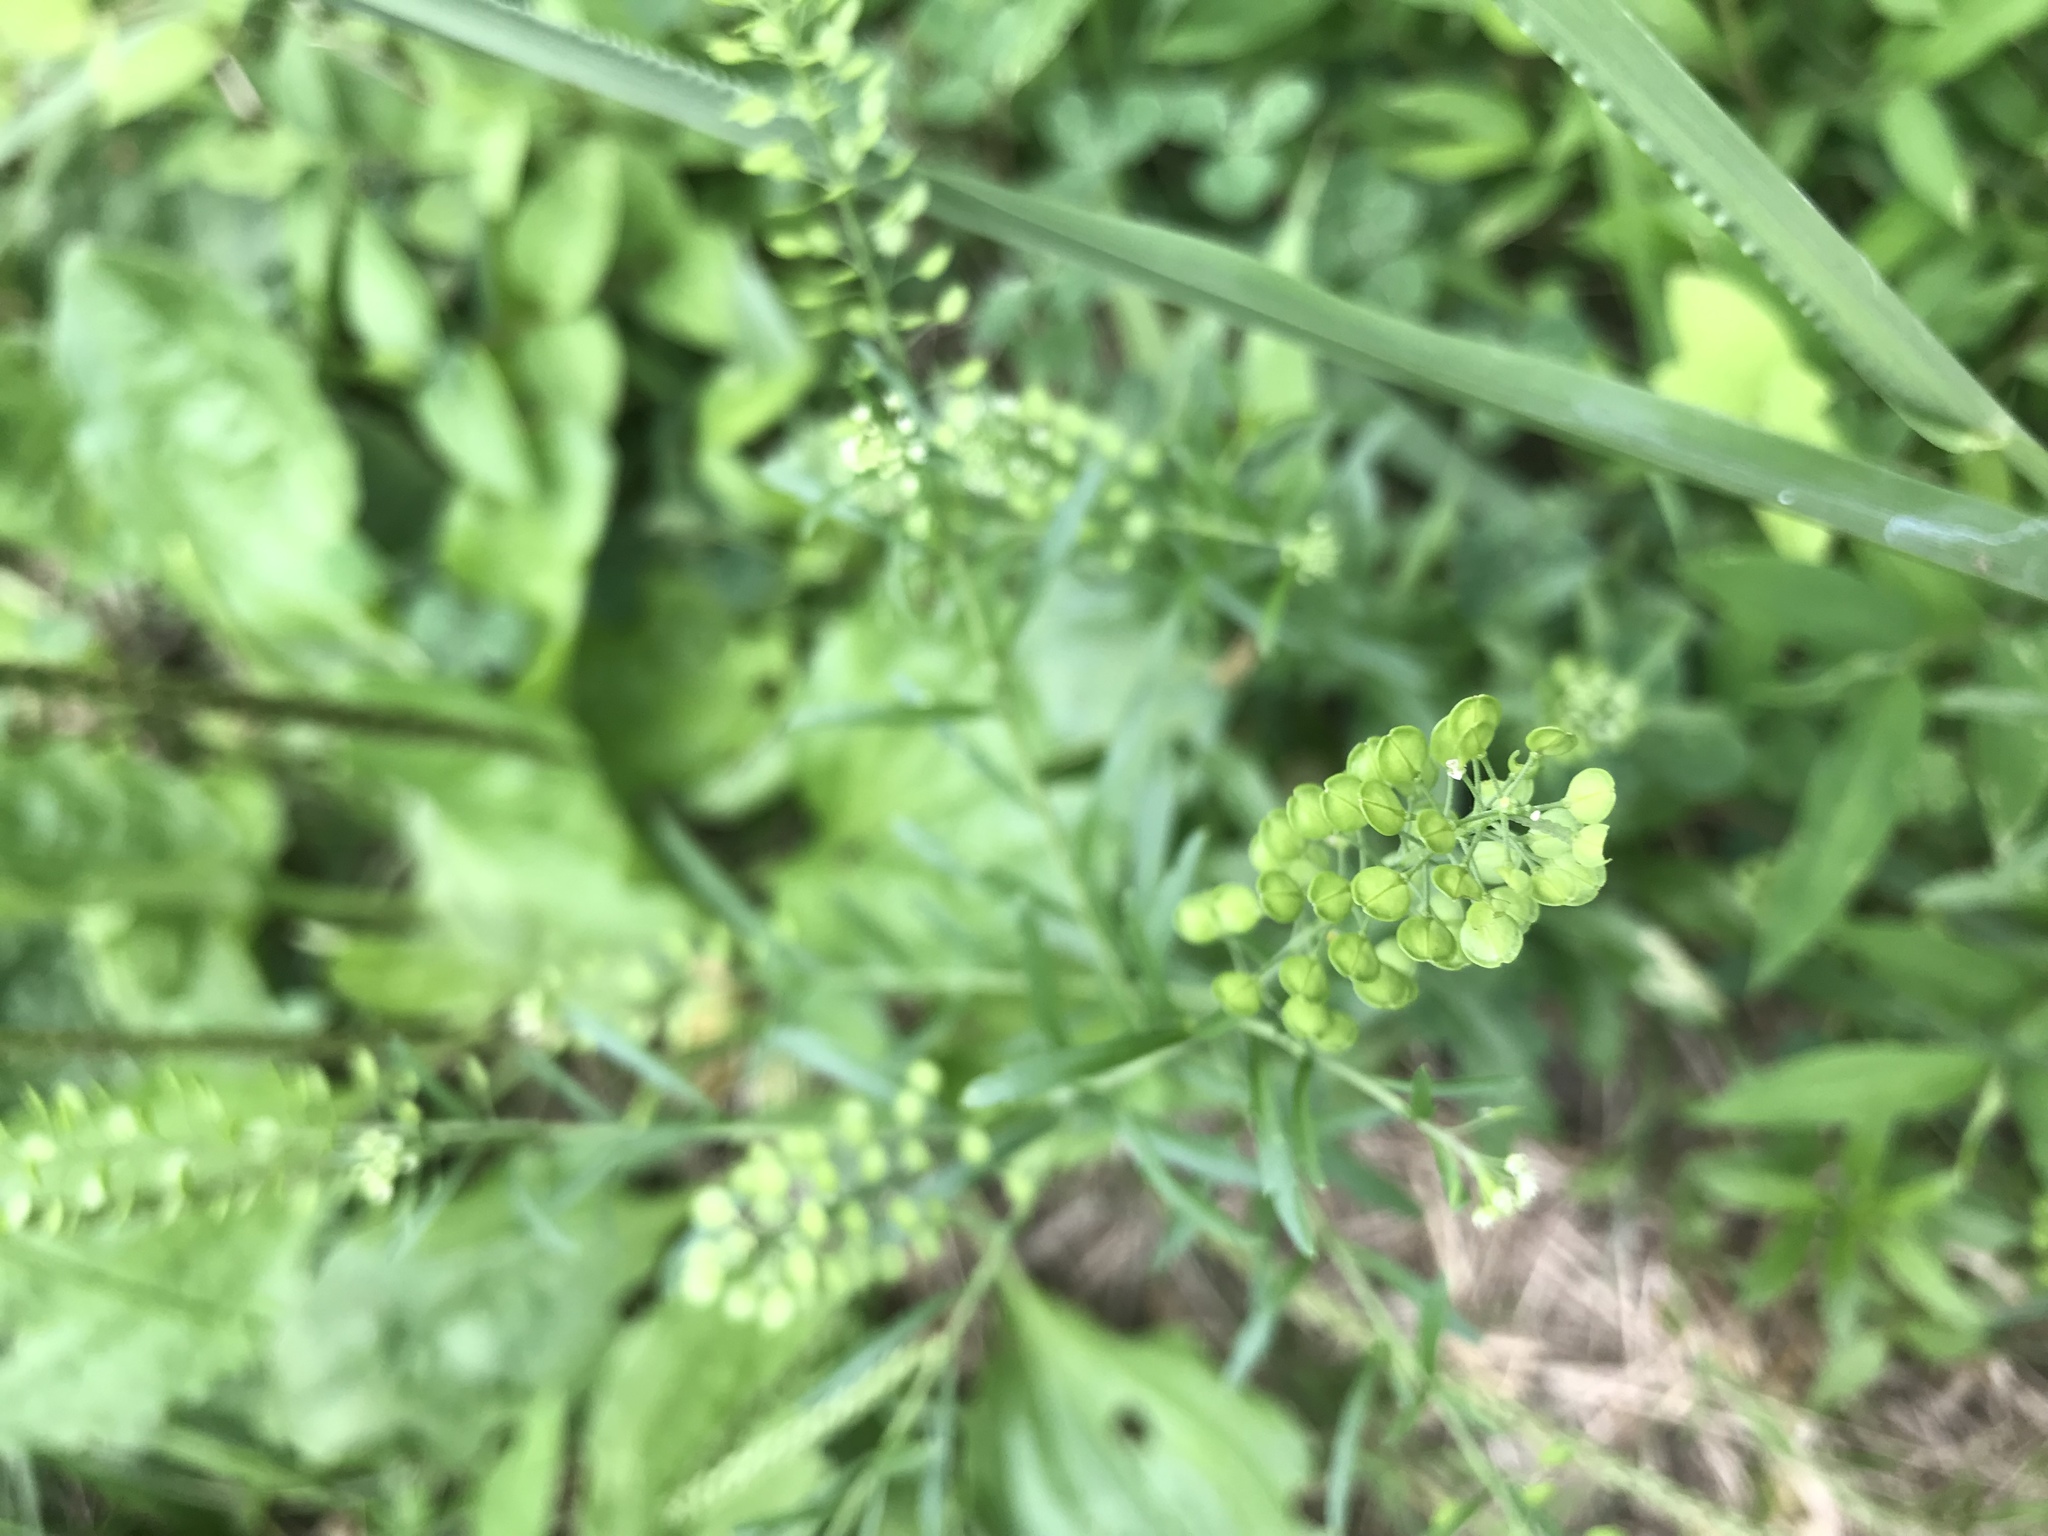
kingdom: Plantae
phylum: Tracheophyta
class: Magnoliopsida
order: Brassicales
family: Brassicaceae
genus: Lepidium
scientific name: Lepidium virginicum
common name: Least pepperwort
